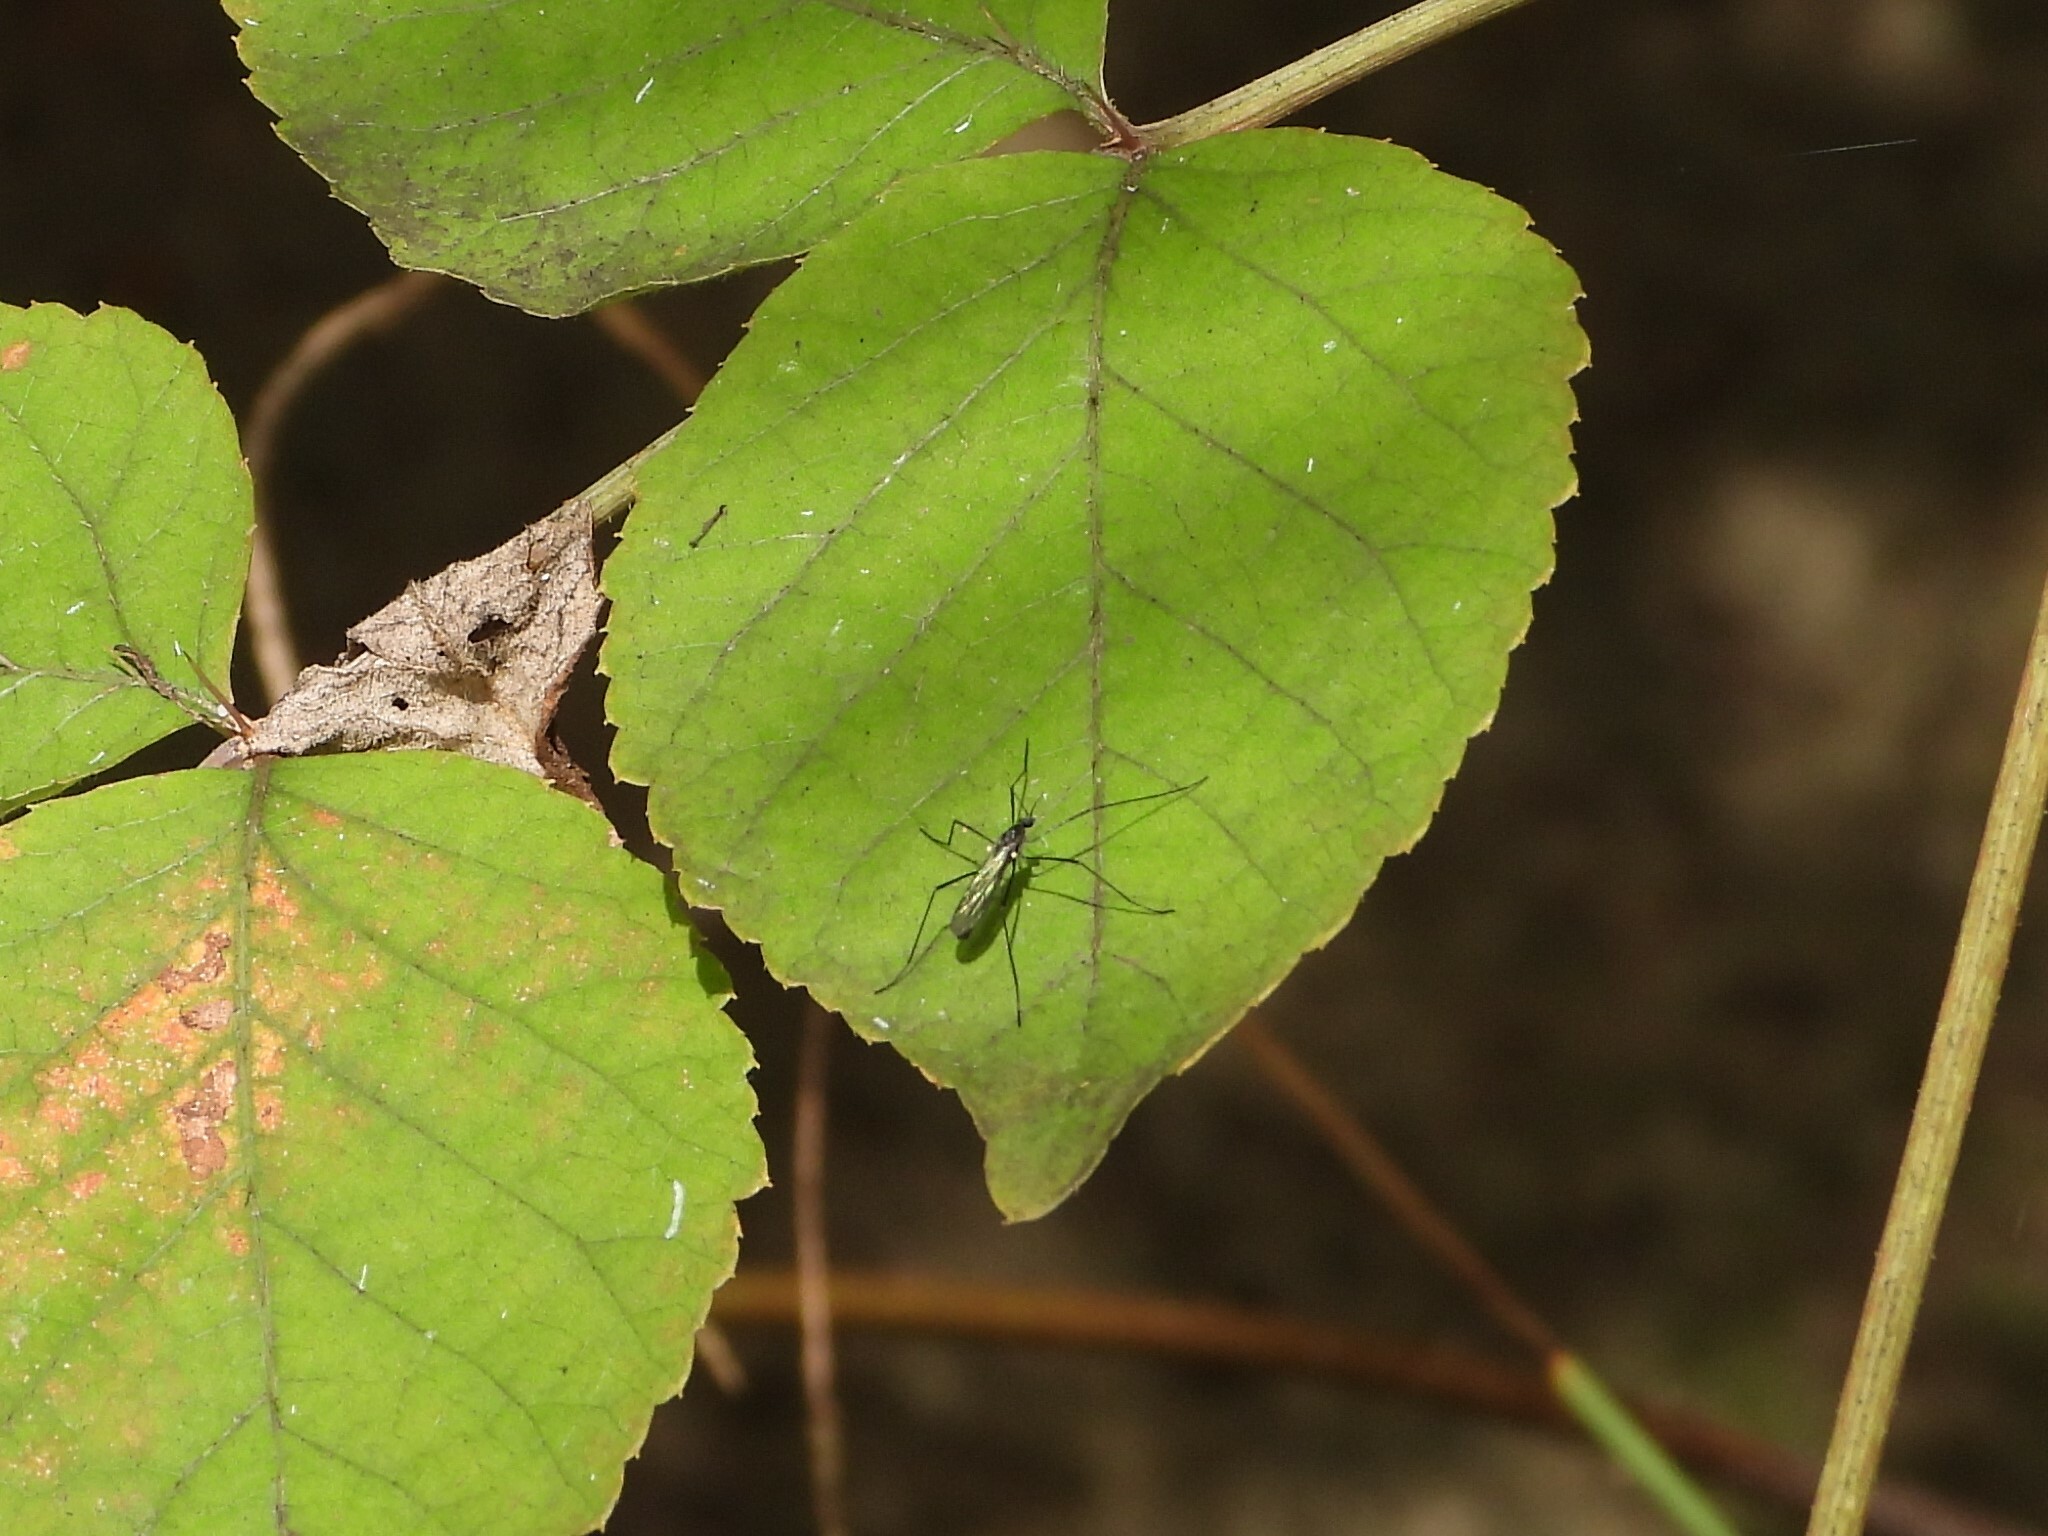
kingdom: Animalia
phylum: Arthropoda
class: Insecta
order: Diptera
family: Limoniidae
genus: Gnophomyia
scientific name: Gnophomyia tristissima
